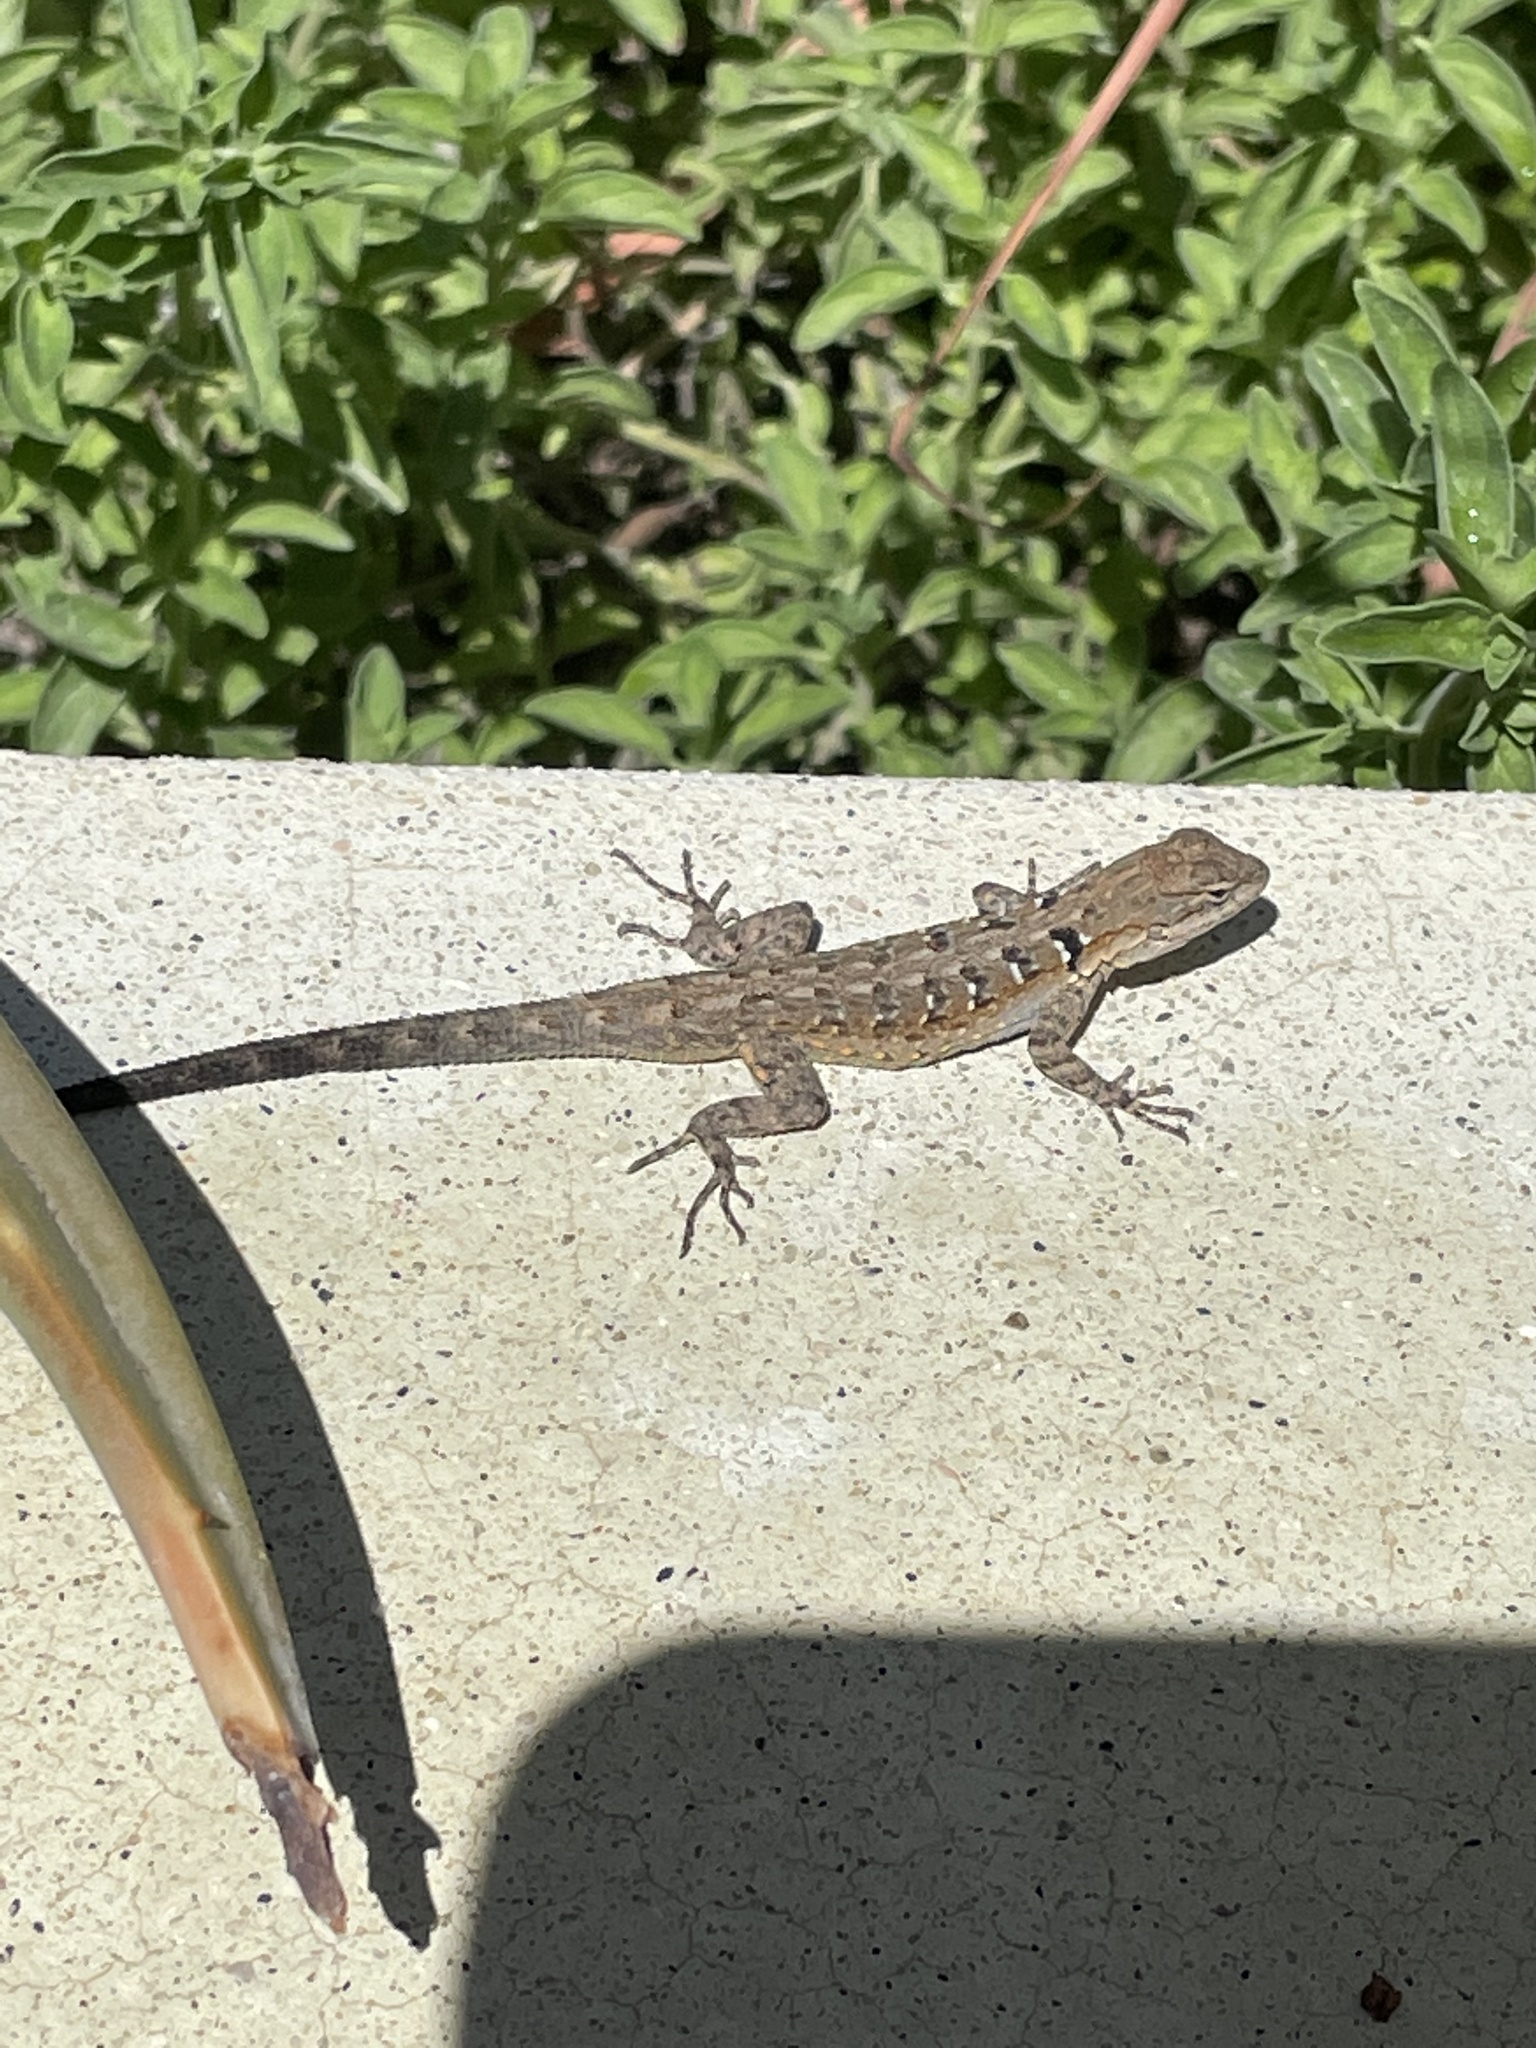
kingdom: Animalia
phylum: Chordata
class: Squamata
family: Phrynosomatidae
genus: Urosaurus
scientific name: Urosaurus nigricauda
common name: Baja california brush lizard
